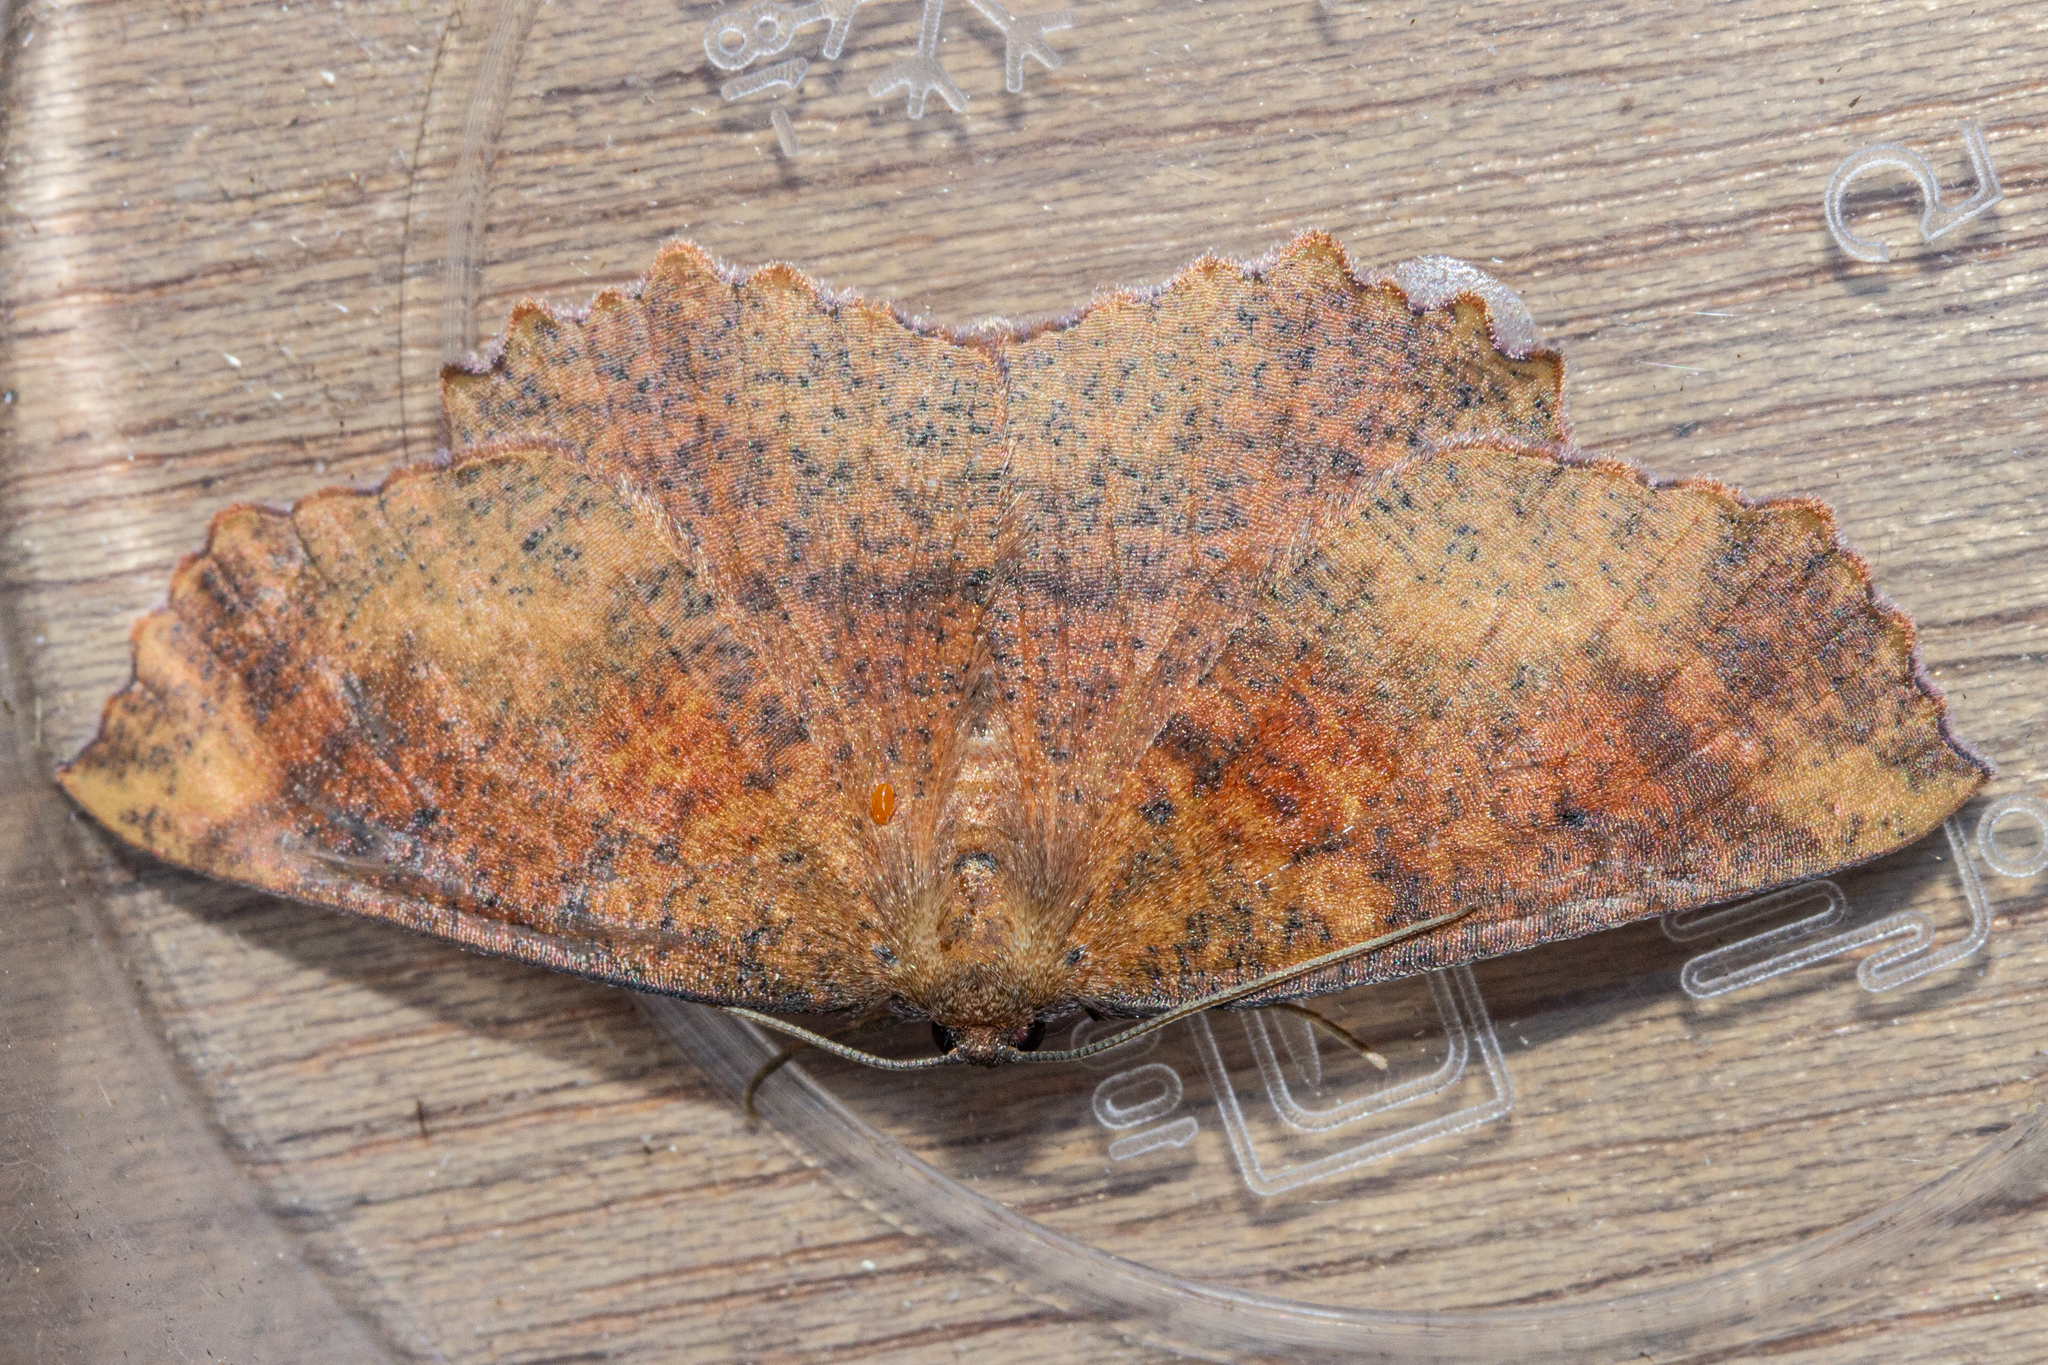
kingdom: Animalia
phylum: Arthropoda
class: Insecta
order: Lepidoptera
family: Geometridae
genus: Xyridacma
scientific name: Xyridacma ustaria
